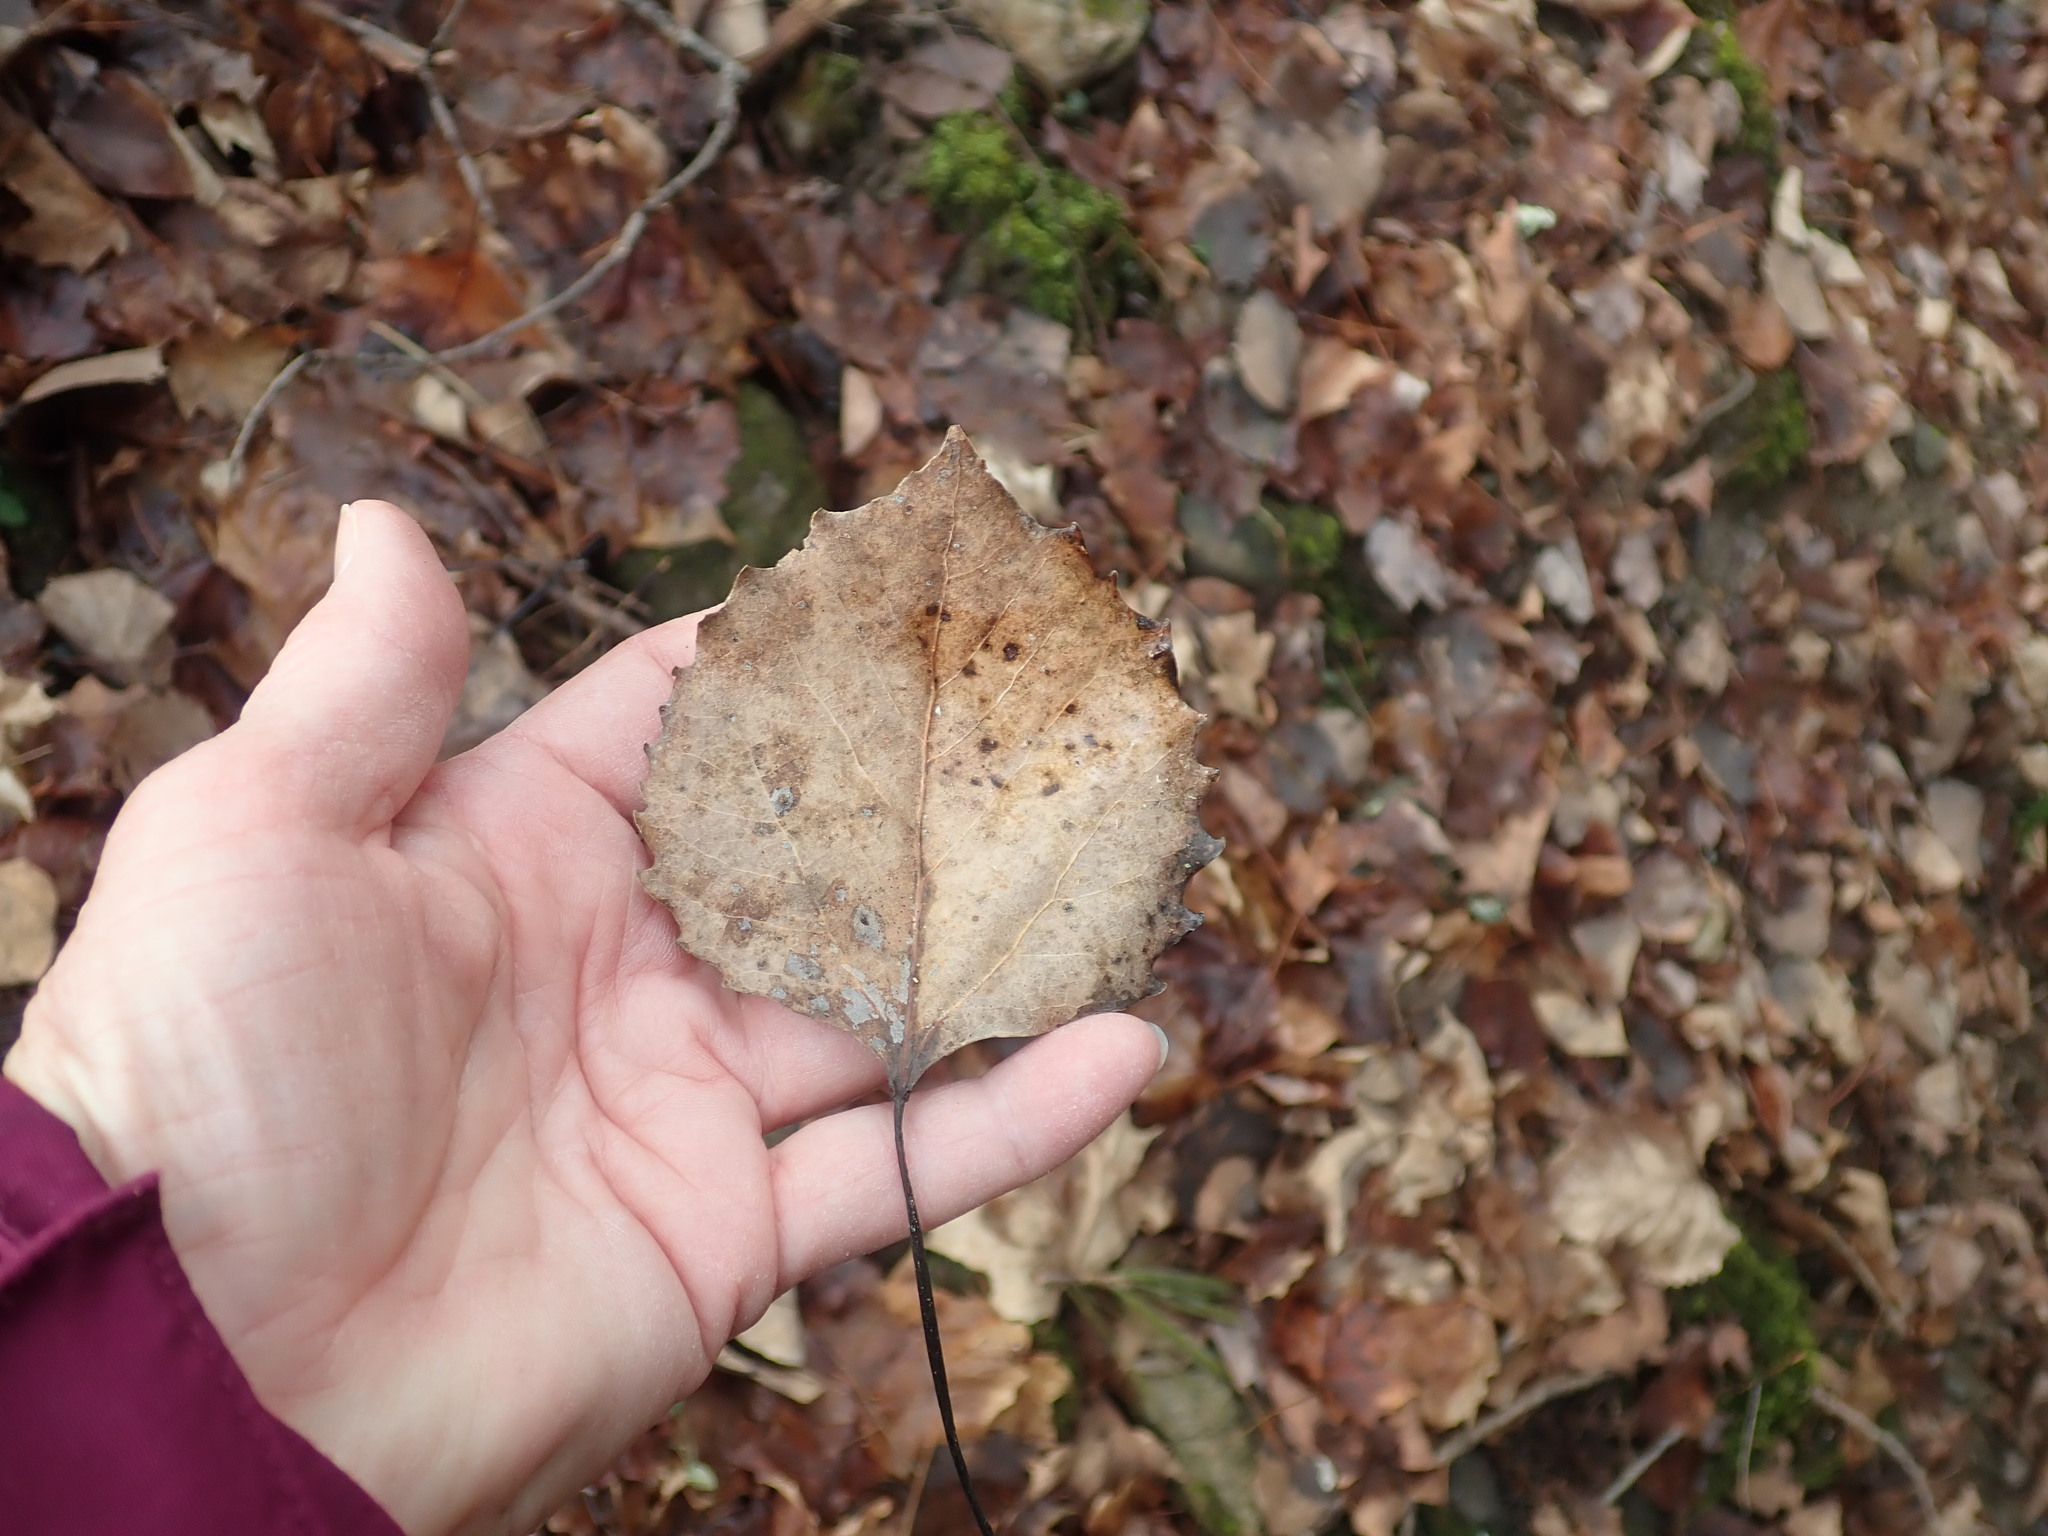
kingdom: Plantae
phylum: Tracheophyta
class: Magnoliopsida
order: Malpighiales
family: Salicaceae
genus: Populus
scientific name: Populus grandidentata
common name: Bigtooth aspen
